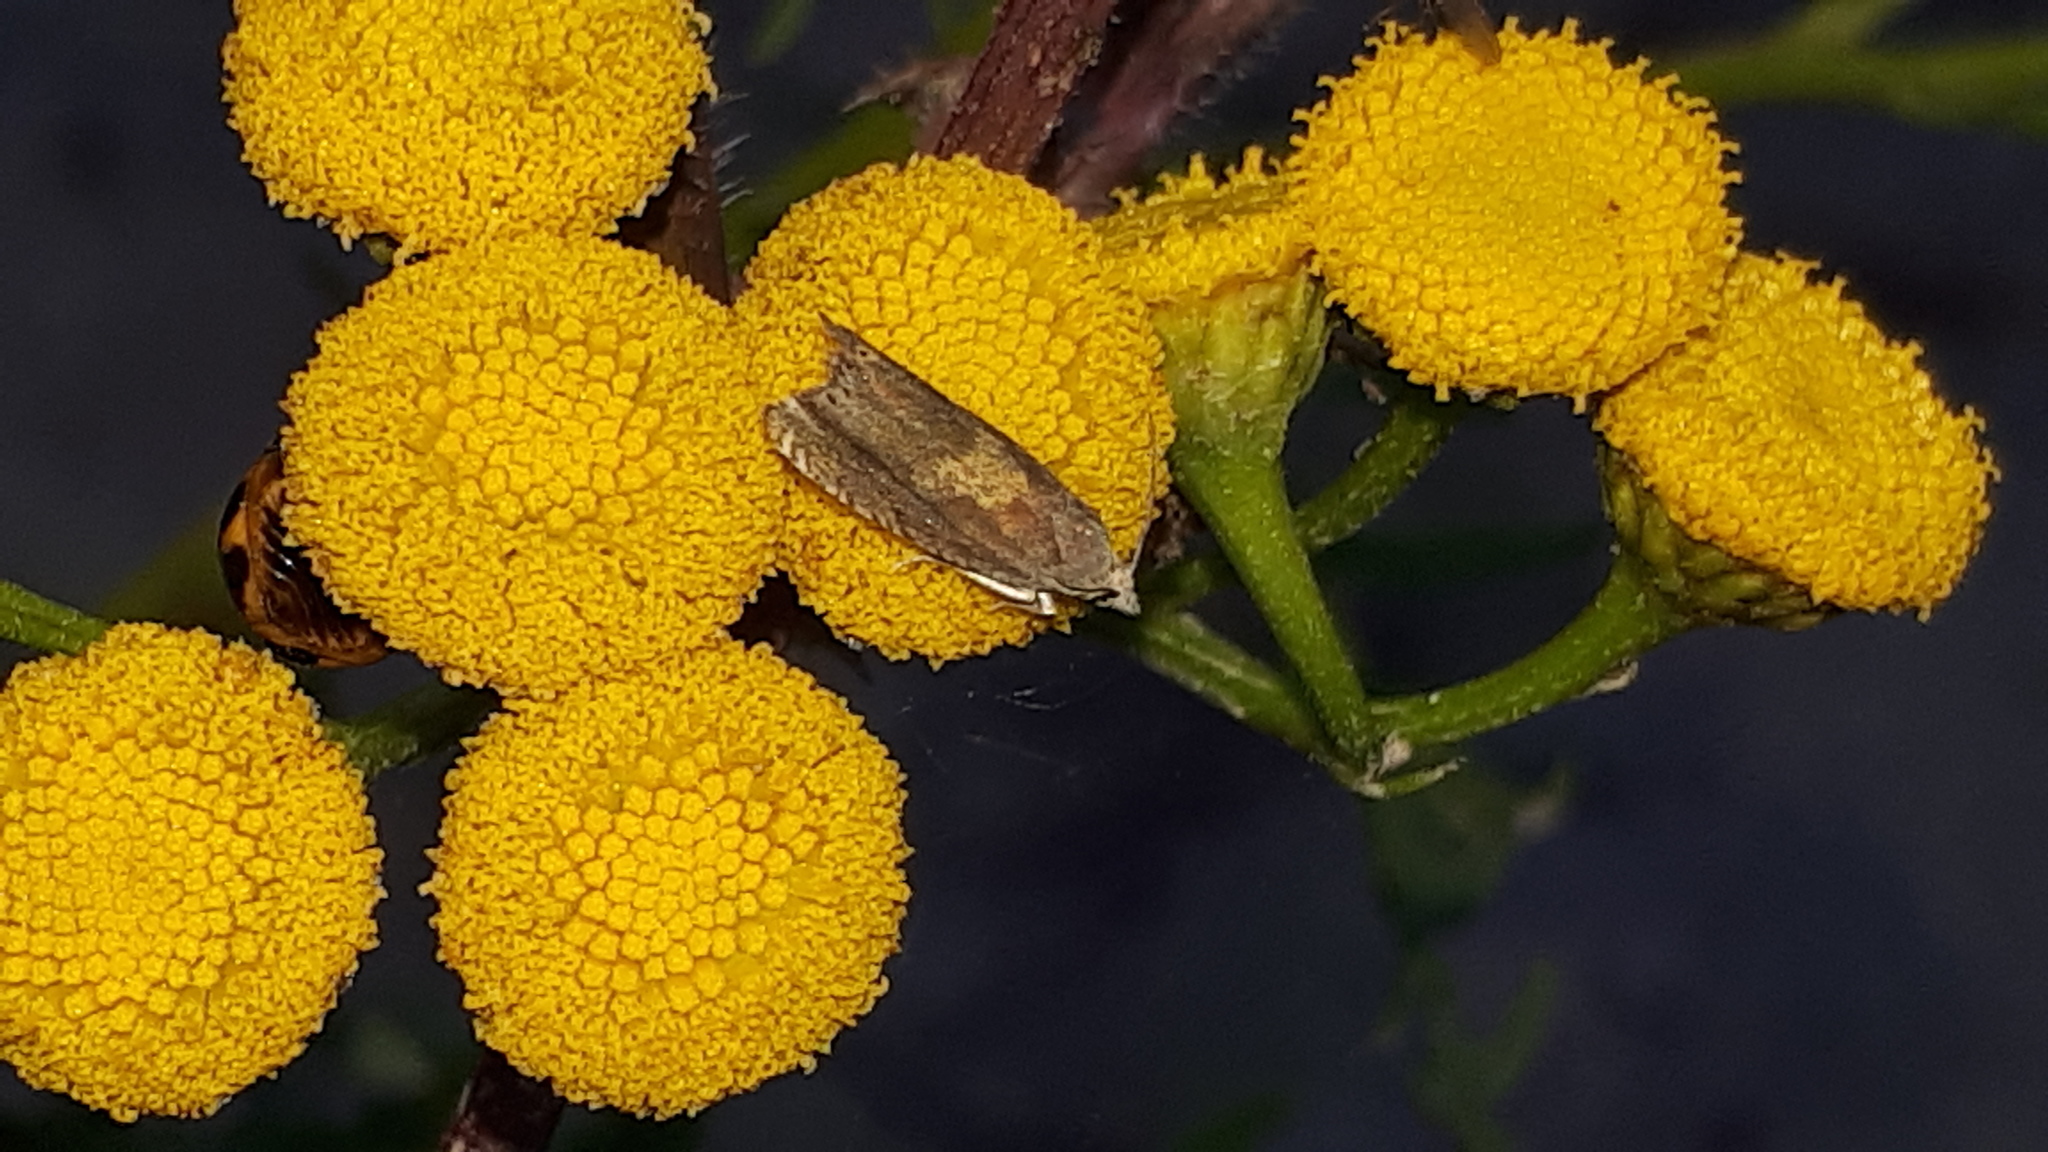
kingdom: Animalia
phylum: Arthropoda
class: Insecta
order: Lepidoptera
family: Tortricidae
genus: Dichrorampha
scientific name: Dichrorampha petiverella
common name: Common drill
